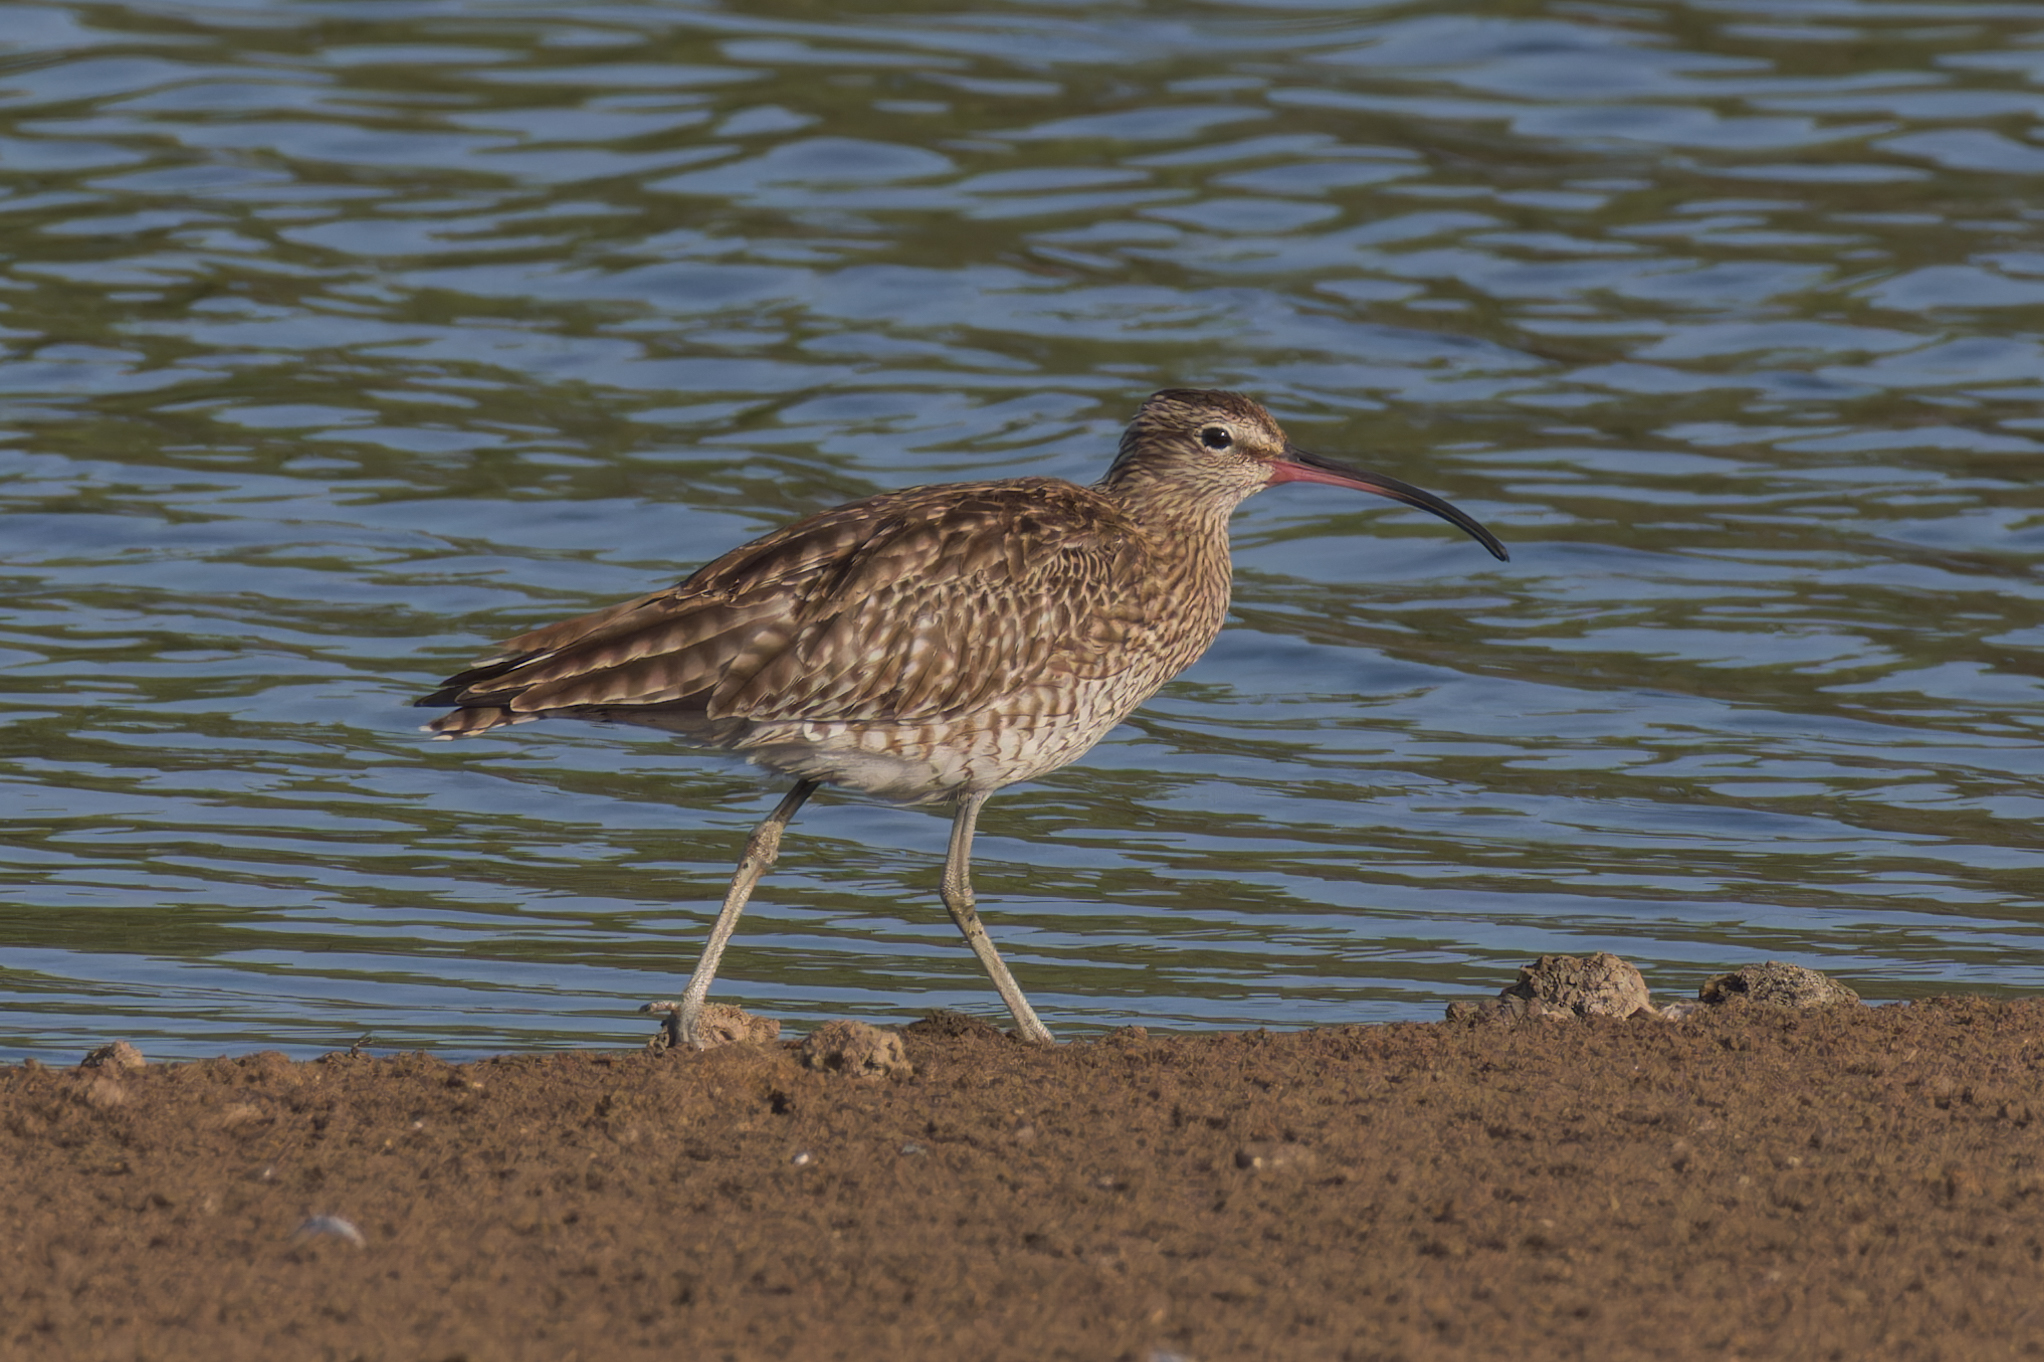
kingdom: Animalia
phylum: Chordata
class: Aves
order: Charadriiformes
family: Scolopacidae
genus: Numenius
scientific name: Numenius phaeopus
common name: Whimbrel
